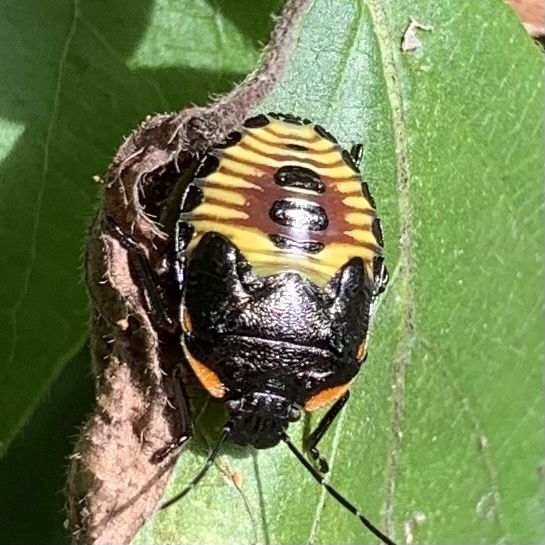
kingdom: Animalia
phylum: Arthropoda
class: Insecta
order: Hemiptera
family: Pentatomidae
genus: Chinavia
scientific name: Chinavia hilaris
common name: Green stink bug
